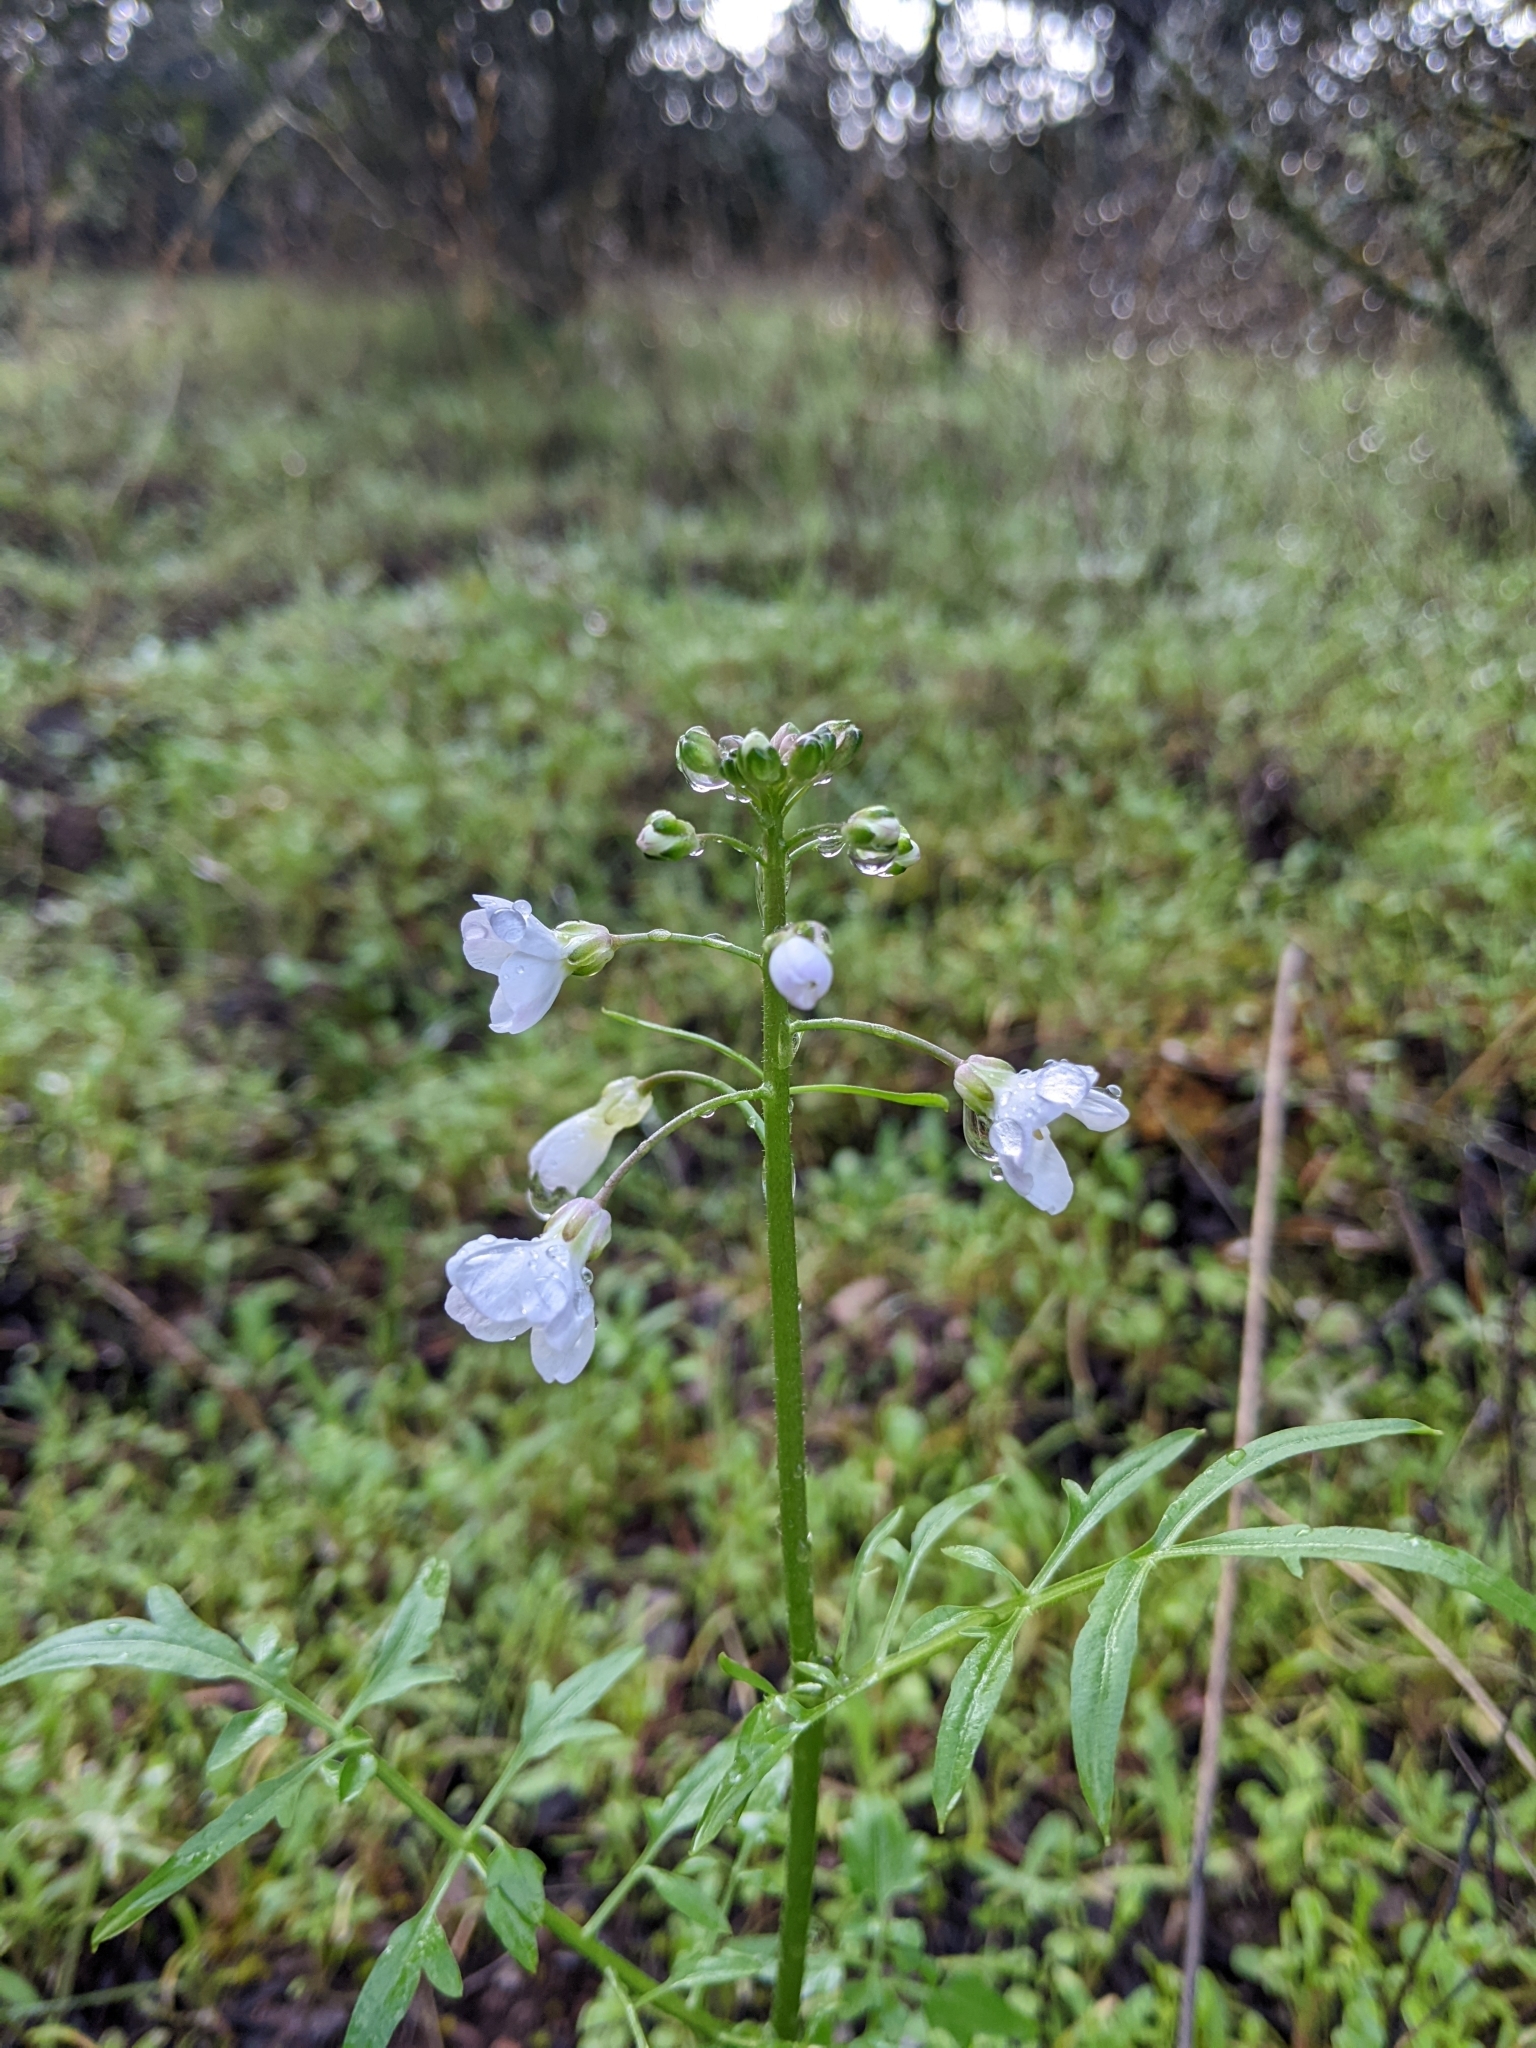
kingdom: Plantae
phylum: Tracheophyta
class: Magnoliopsida
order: Brassicales
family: Brassicaceae
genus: Cardamine
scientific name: Cardamine californica
